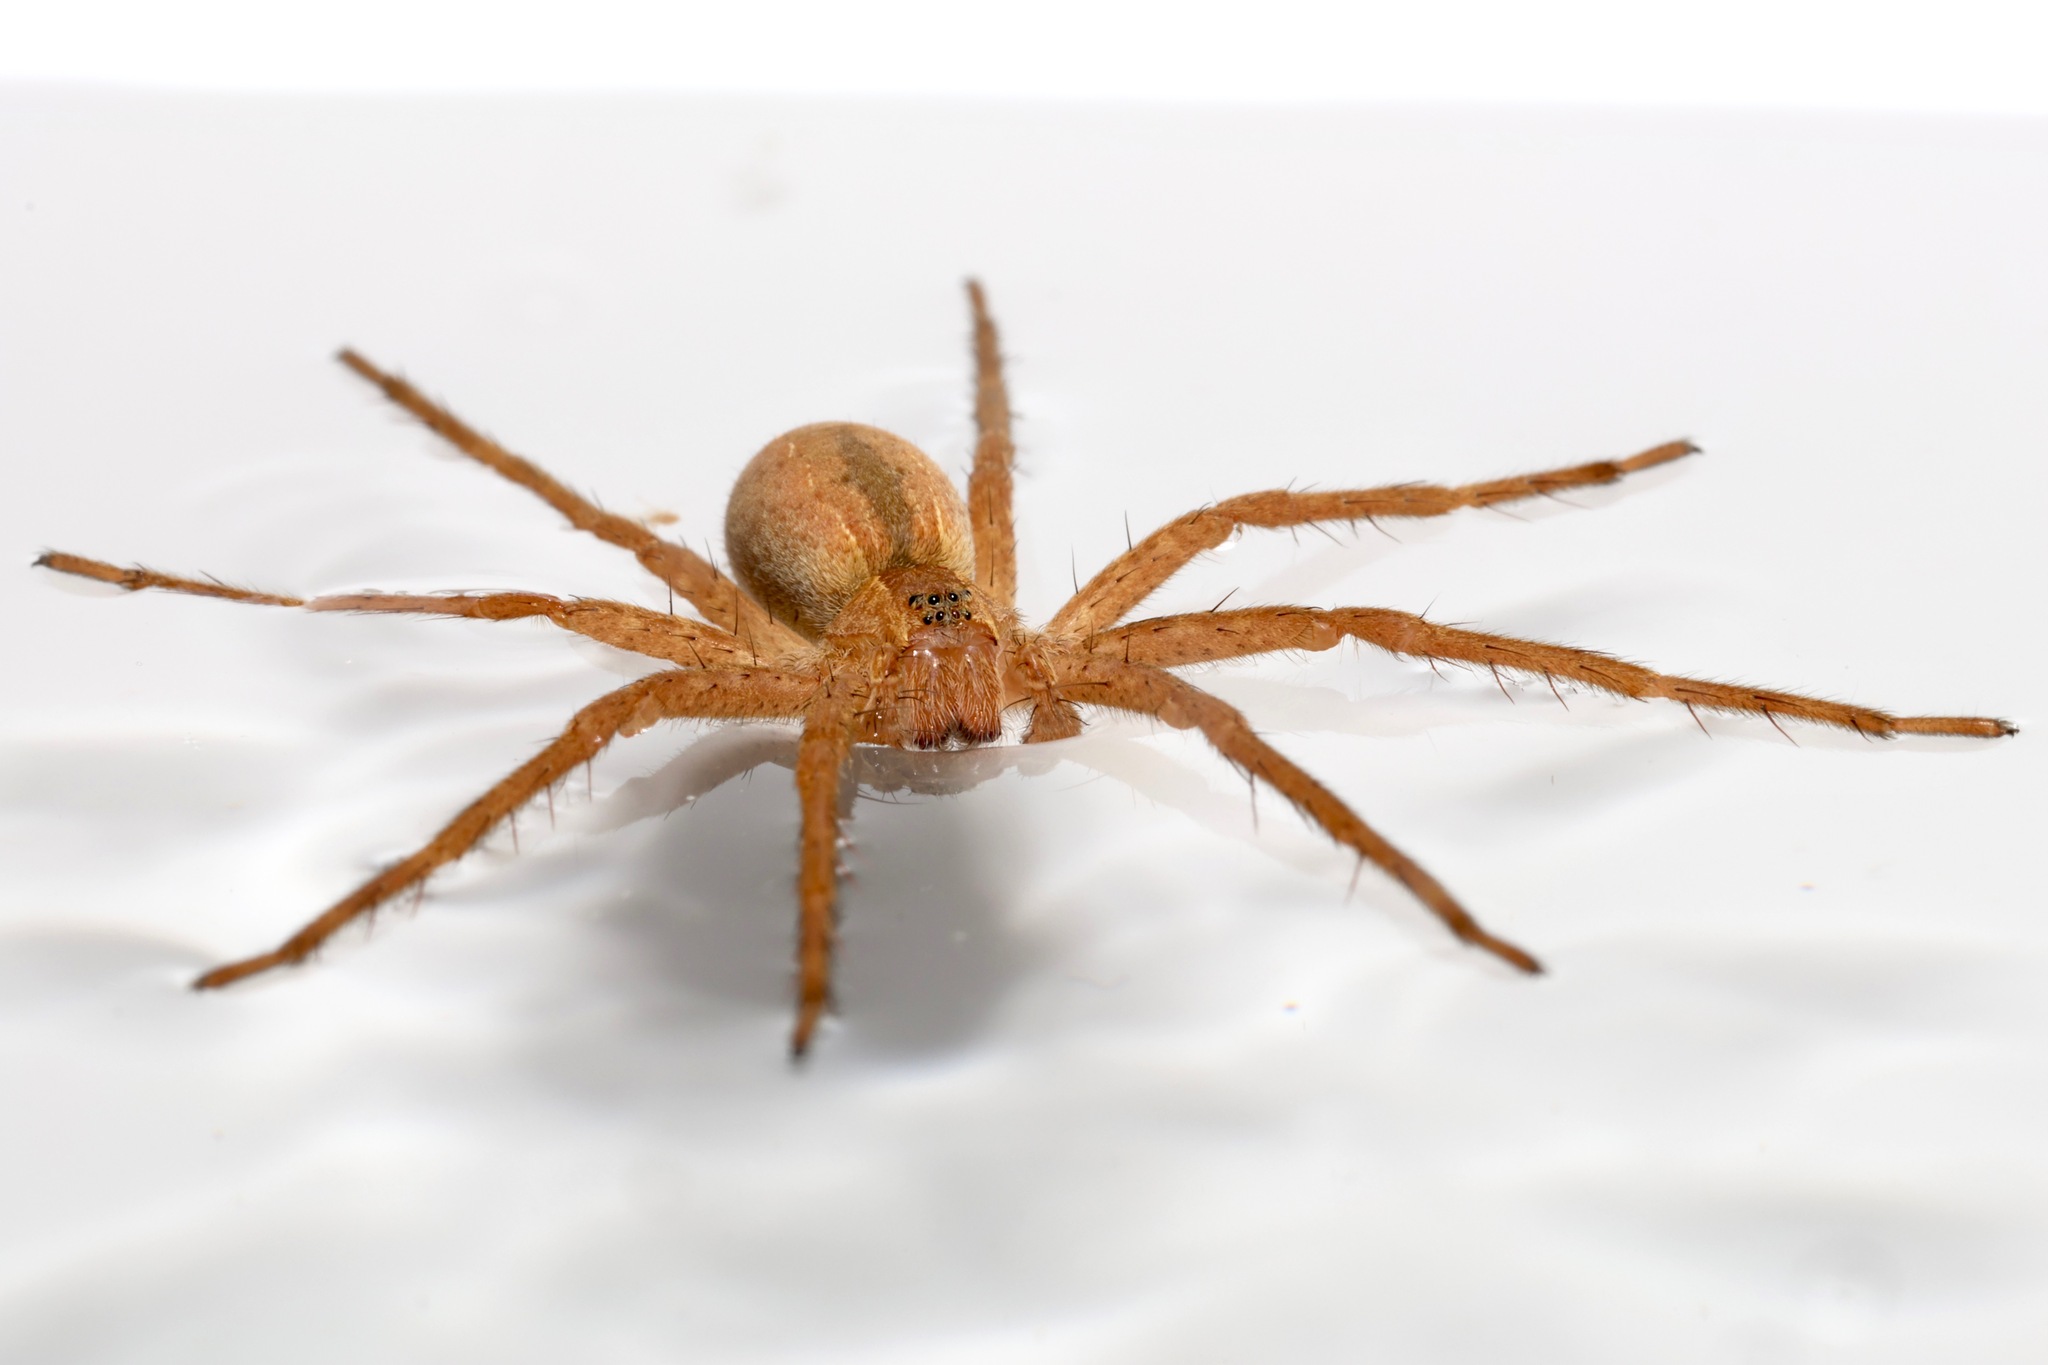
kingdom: Animalia
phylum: Arthropoda
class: Arachnida
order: Araneae
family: Pisauridae
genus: Pisaurina
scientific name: Pisaurina mira
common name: American nursery web spider
